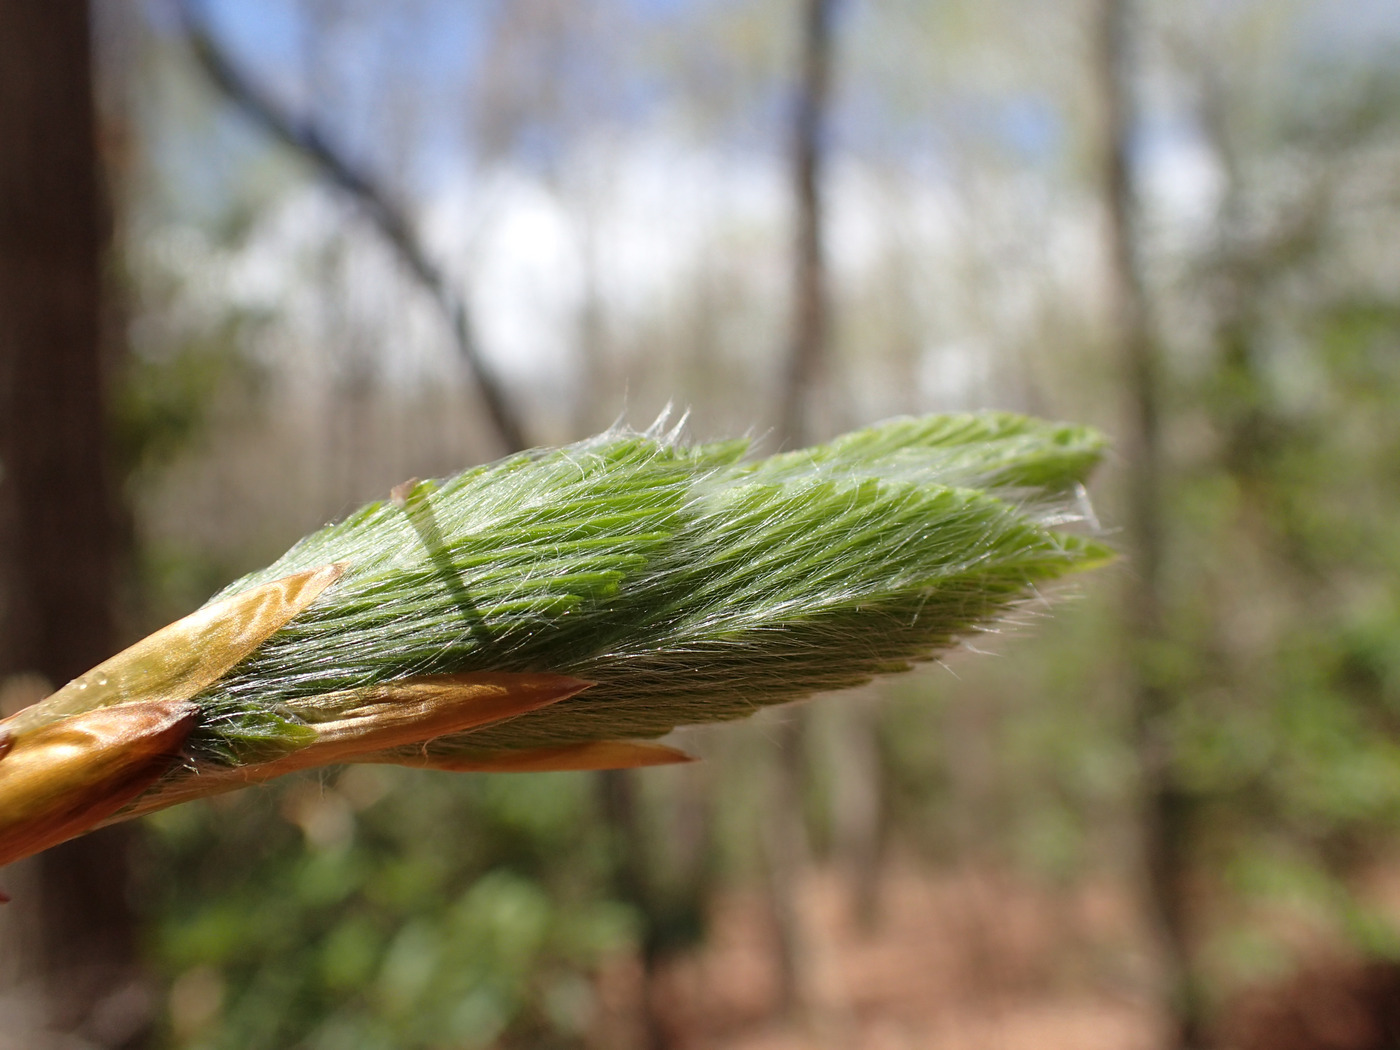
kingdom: Plantae
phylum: Tracheophyta
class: Magnoliopsida
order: Fagales
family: Fagaceae
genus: Fagus
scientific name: Fagus grandifolia
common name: American beech
